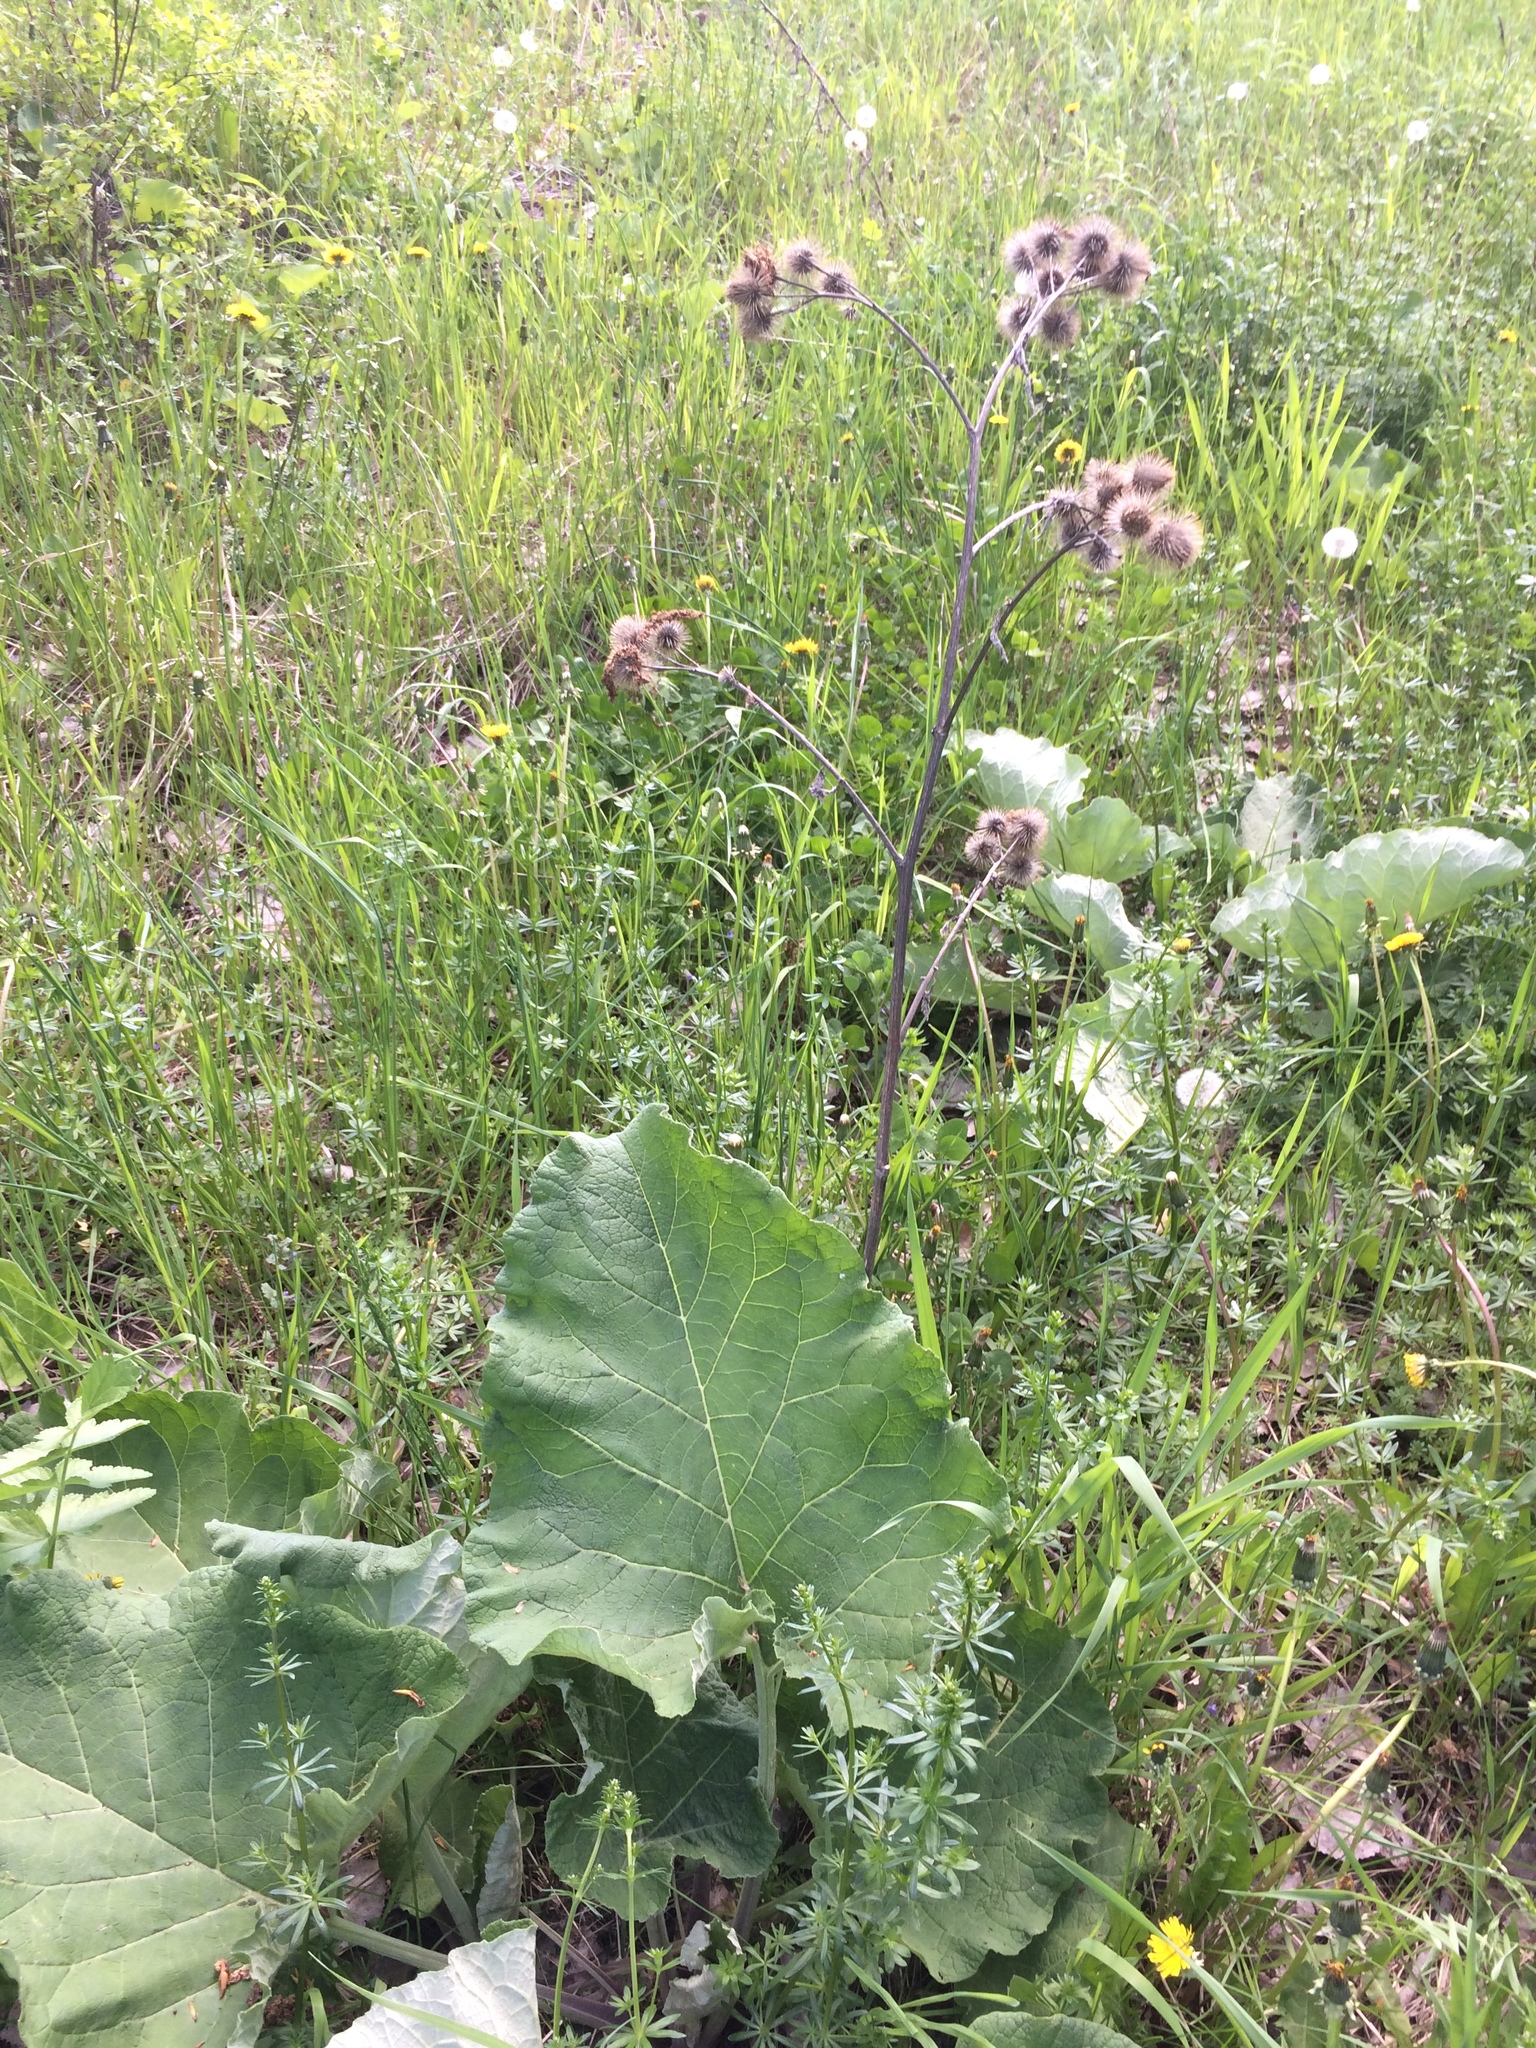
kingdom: Plantae
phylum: Tracheophyta
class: Magnoliopsida
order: Asterales
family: Asteraceae
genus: Arctium
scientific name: Arctium lappa
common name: Greater burdock
